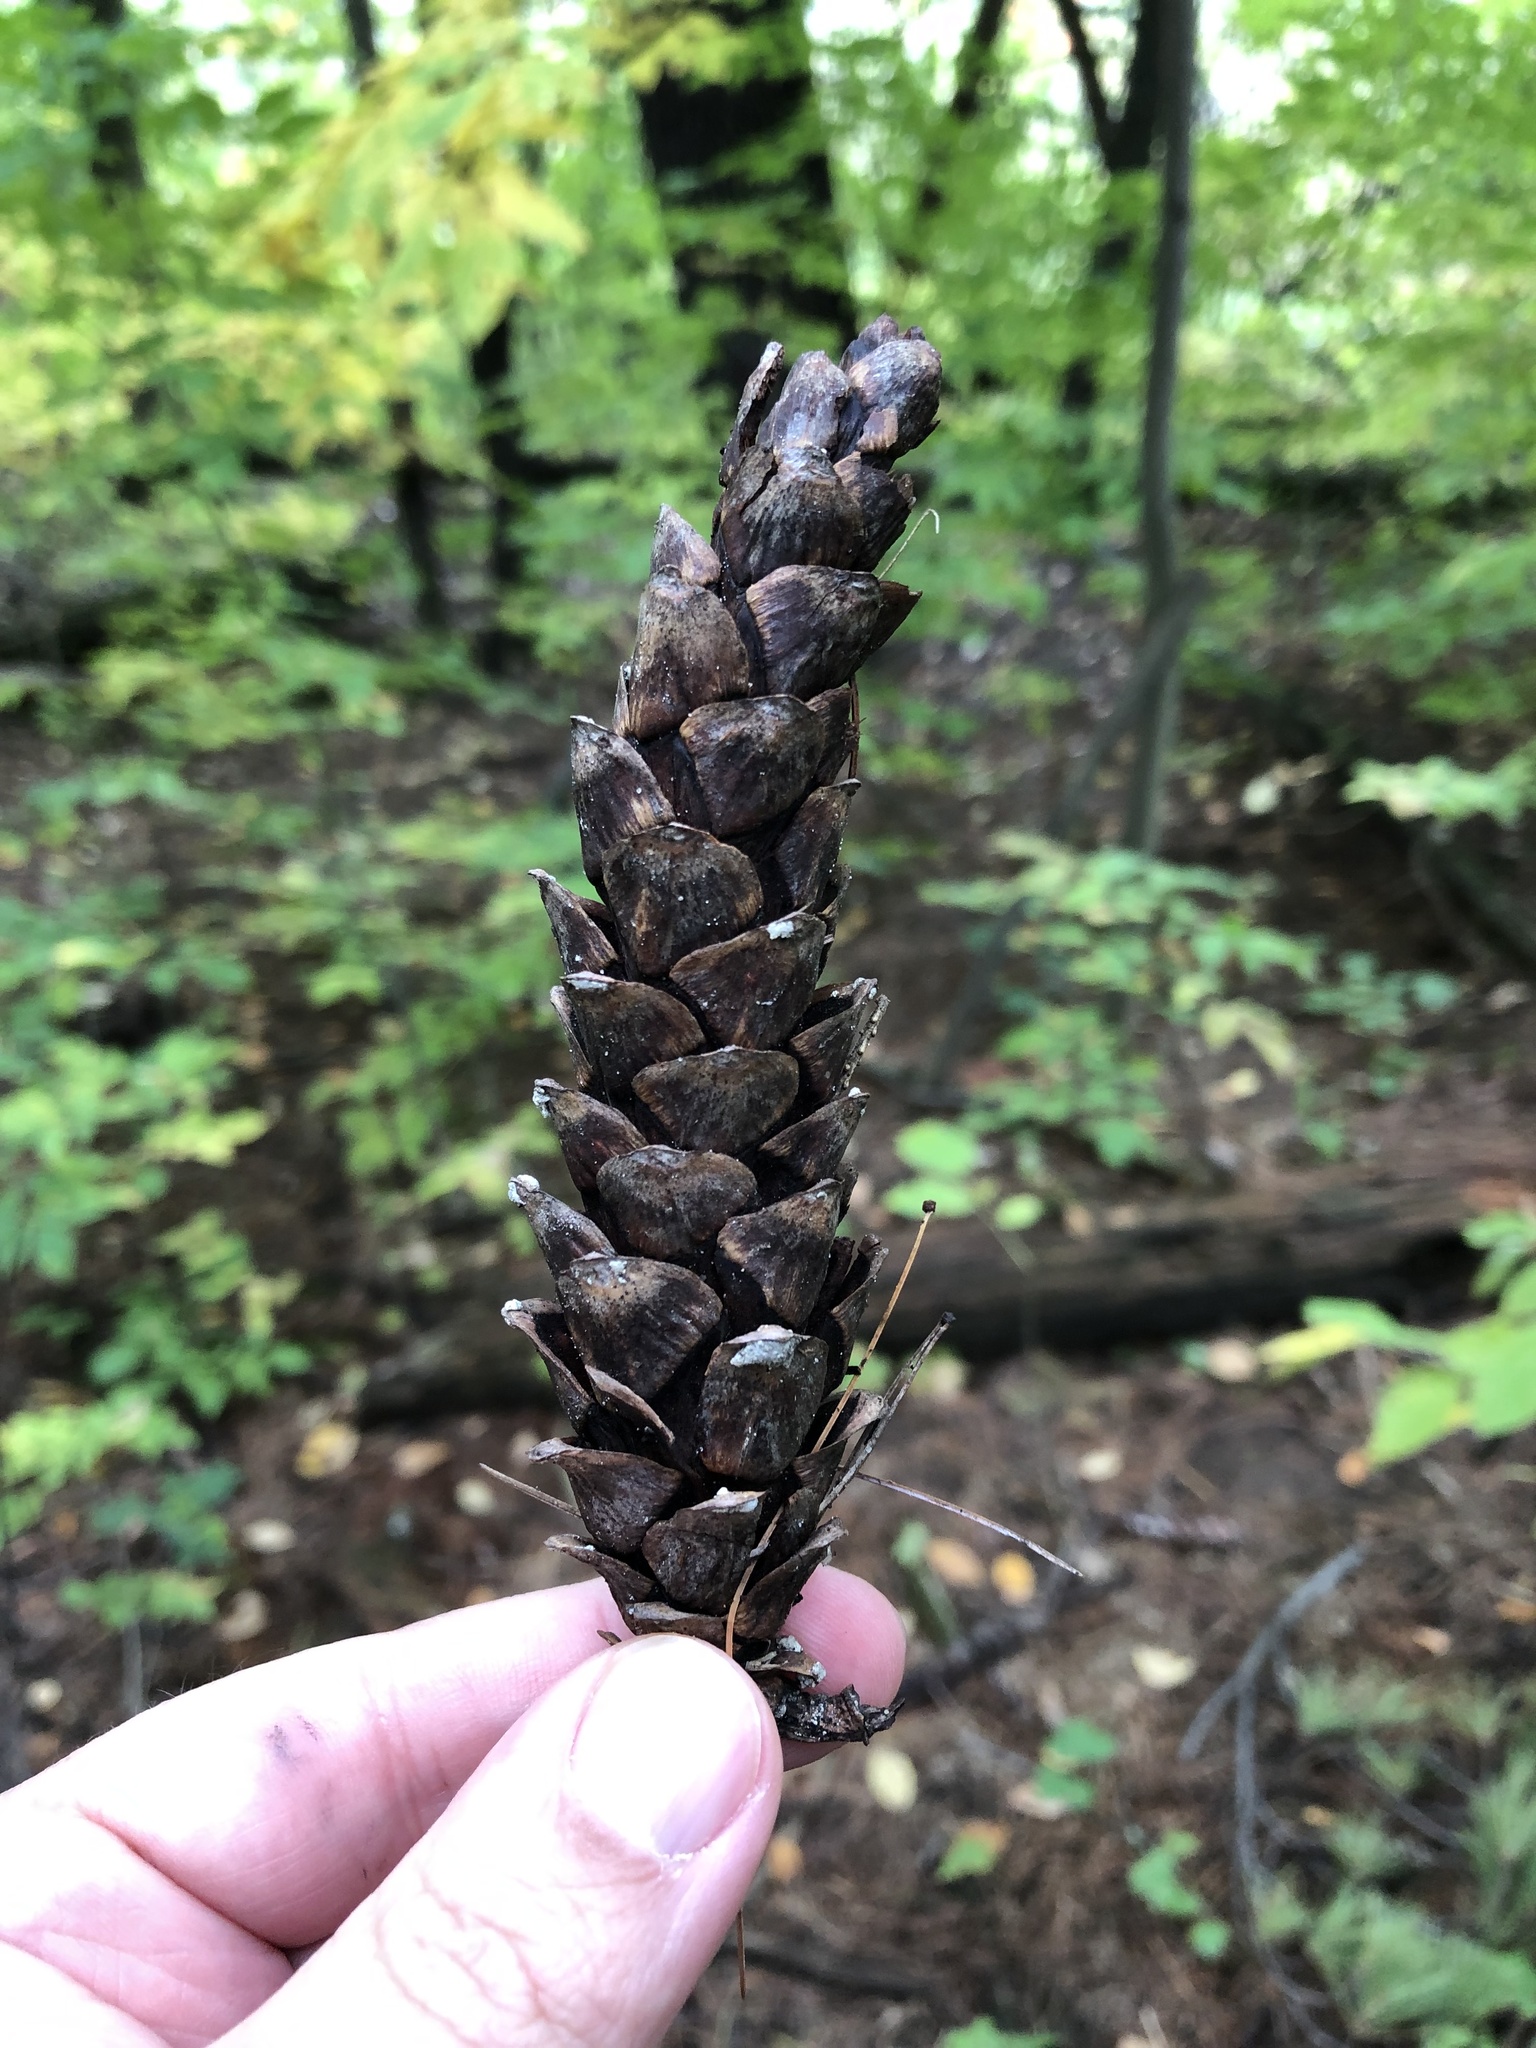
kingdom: Plantae
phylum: Tracheophyta
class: Pinopsida
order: Pinales
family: Pinaceae
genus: Pinus
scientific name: Pinus strobus
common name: Weymouth pine
